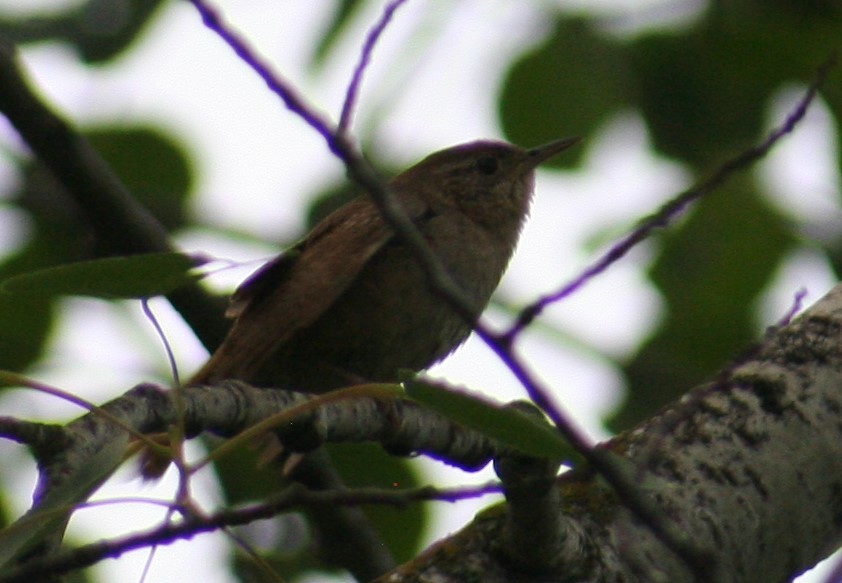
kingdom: Animalia
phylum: Chordata
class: Aves
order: Passeriformes
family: Troglodytidae
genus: Troglodytes
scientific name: Troglodytes aedon
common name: House wren
